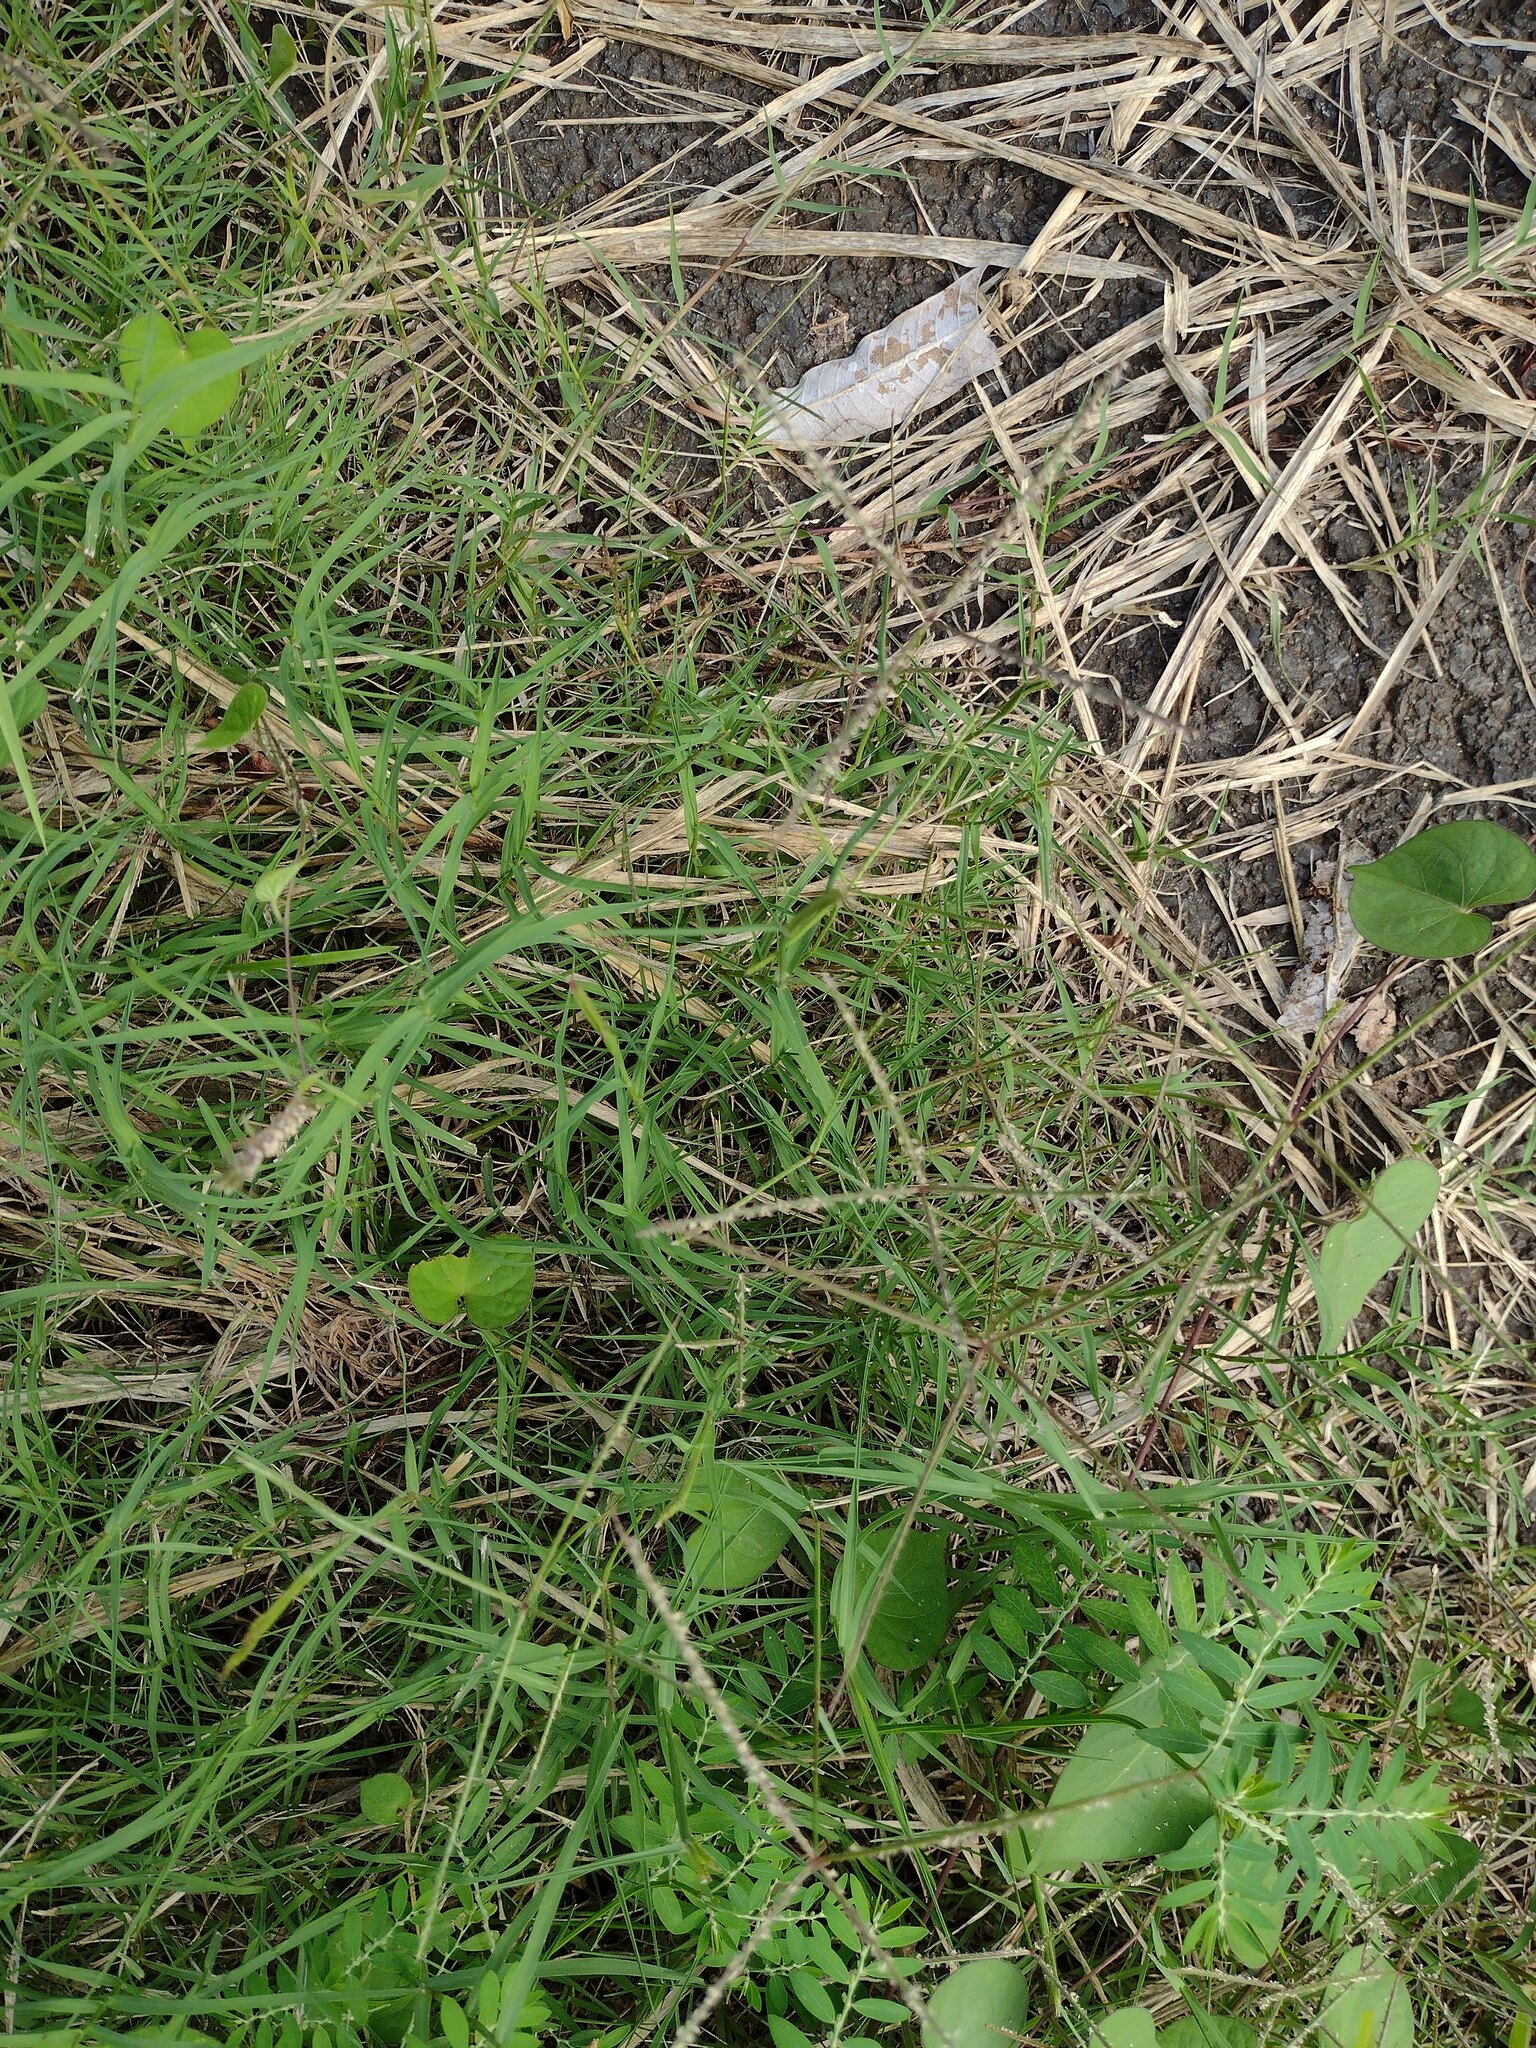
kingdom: Plantae
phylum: Tracheophyta
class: Liliopsida
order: Poales
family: Poaceae
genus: Cynodon
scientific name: Cynodon dactylon
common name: Bermuda grass
